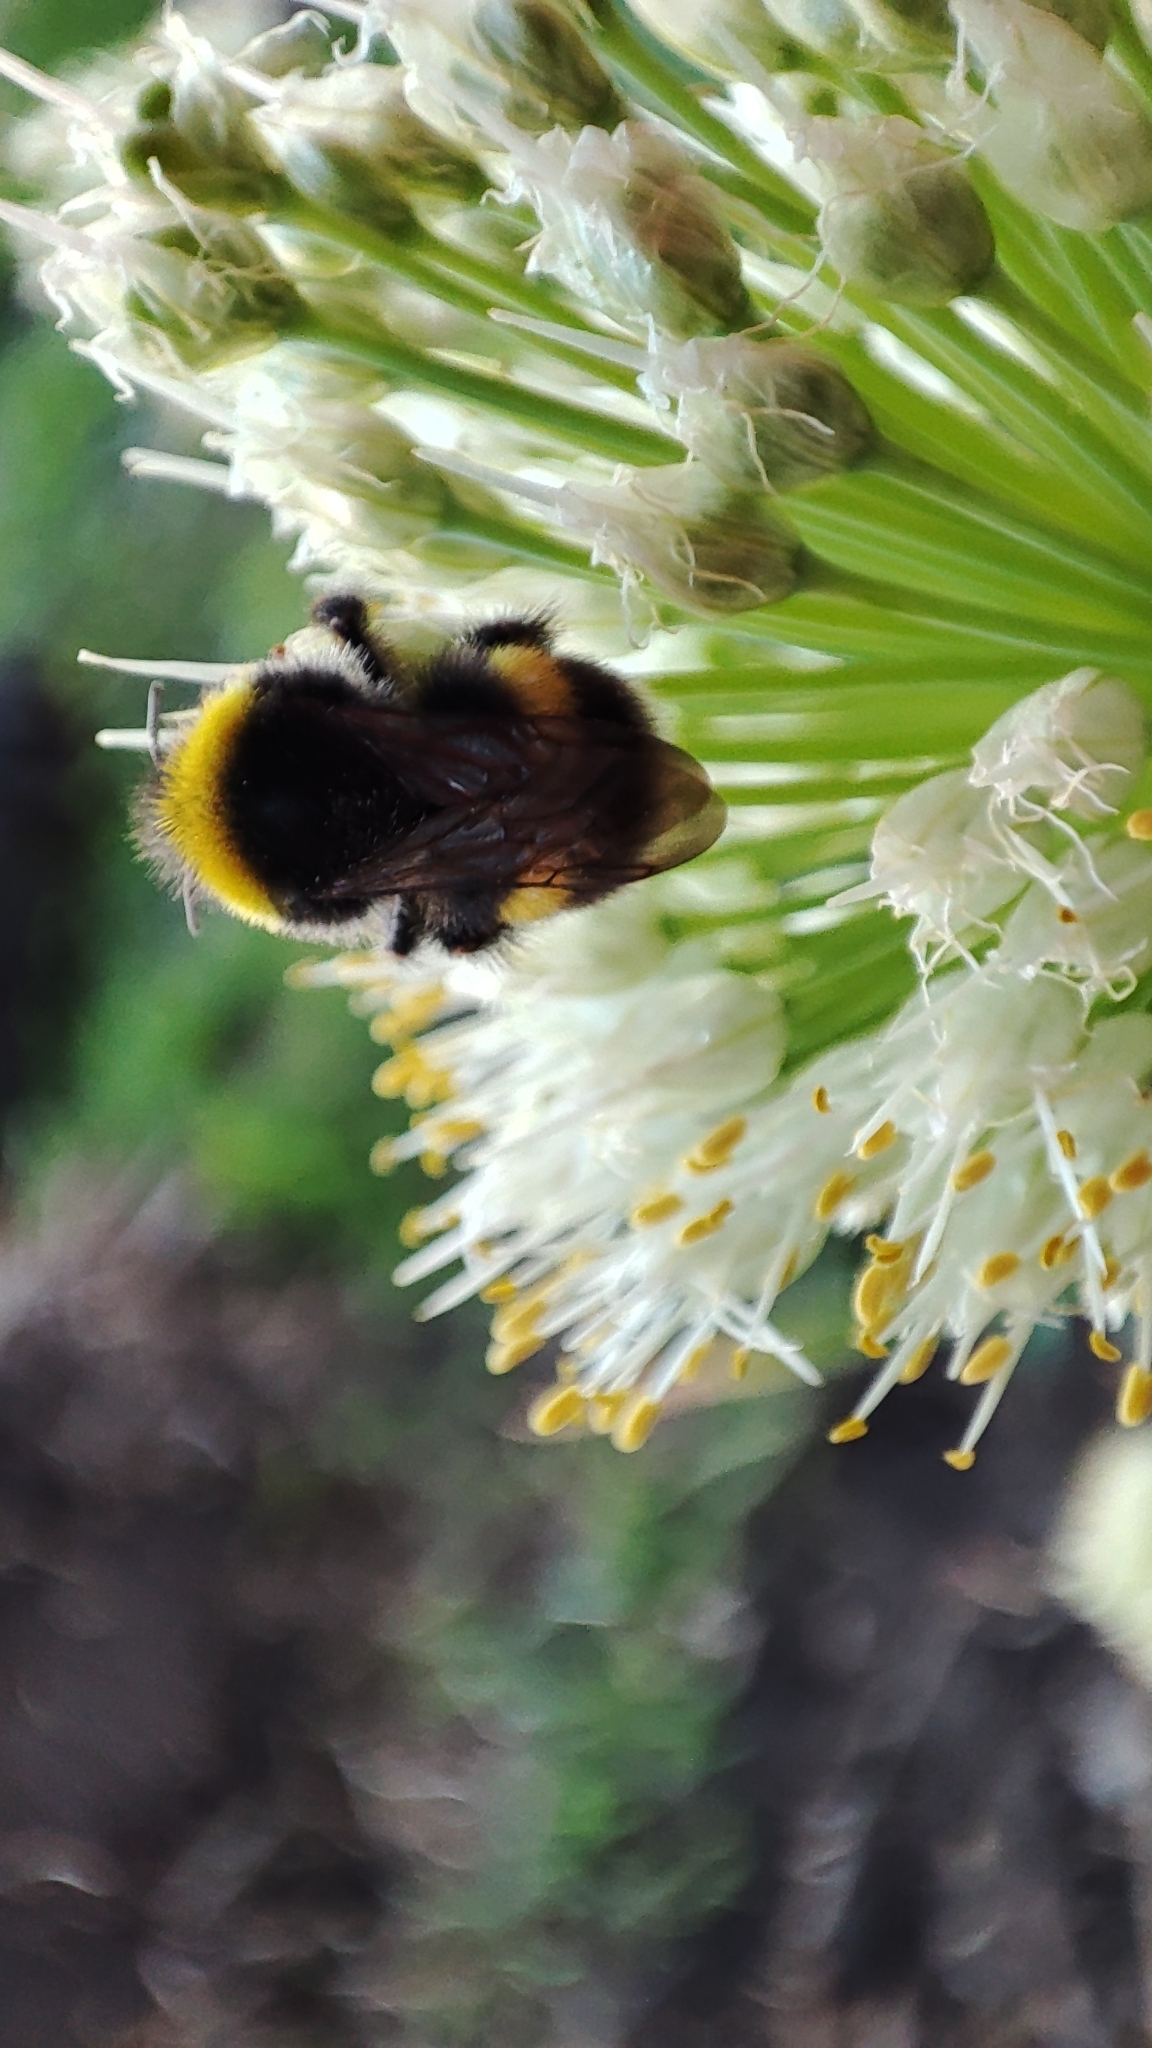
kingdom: Animalia
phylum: Arthropoda
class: Insecta
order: Hymenoptera
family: Apidae
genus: Bombus
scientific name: Bombus
